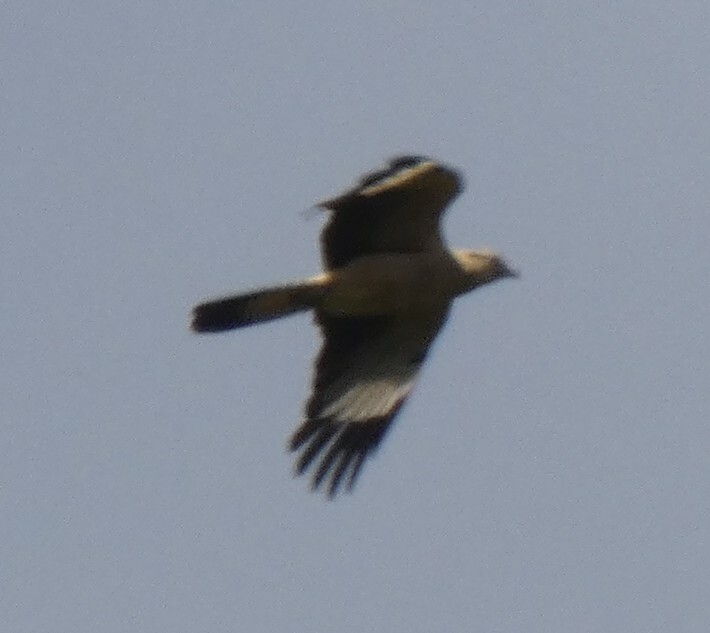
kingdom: Animalia
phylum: Chordata
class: Aves
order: Falconiformes
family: Falconidae
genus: Daptrius
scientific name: Daptrius
